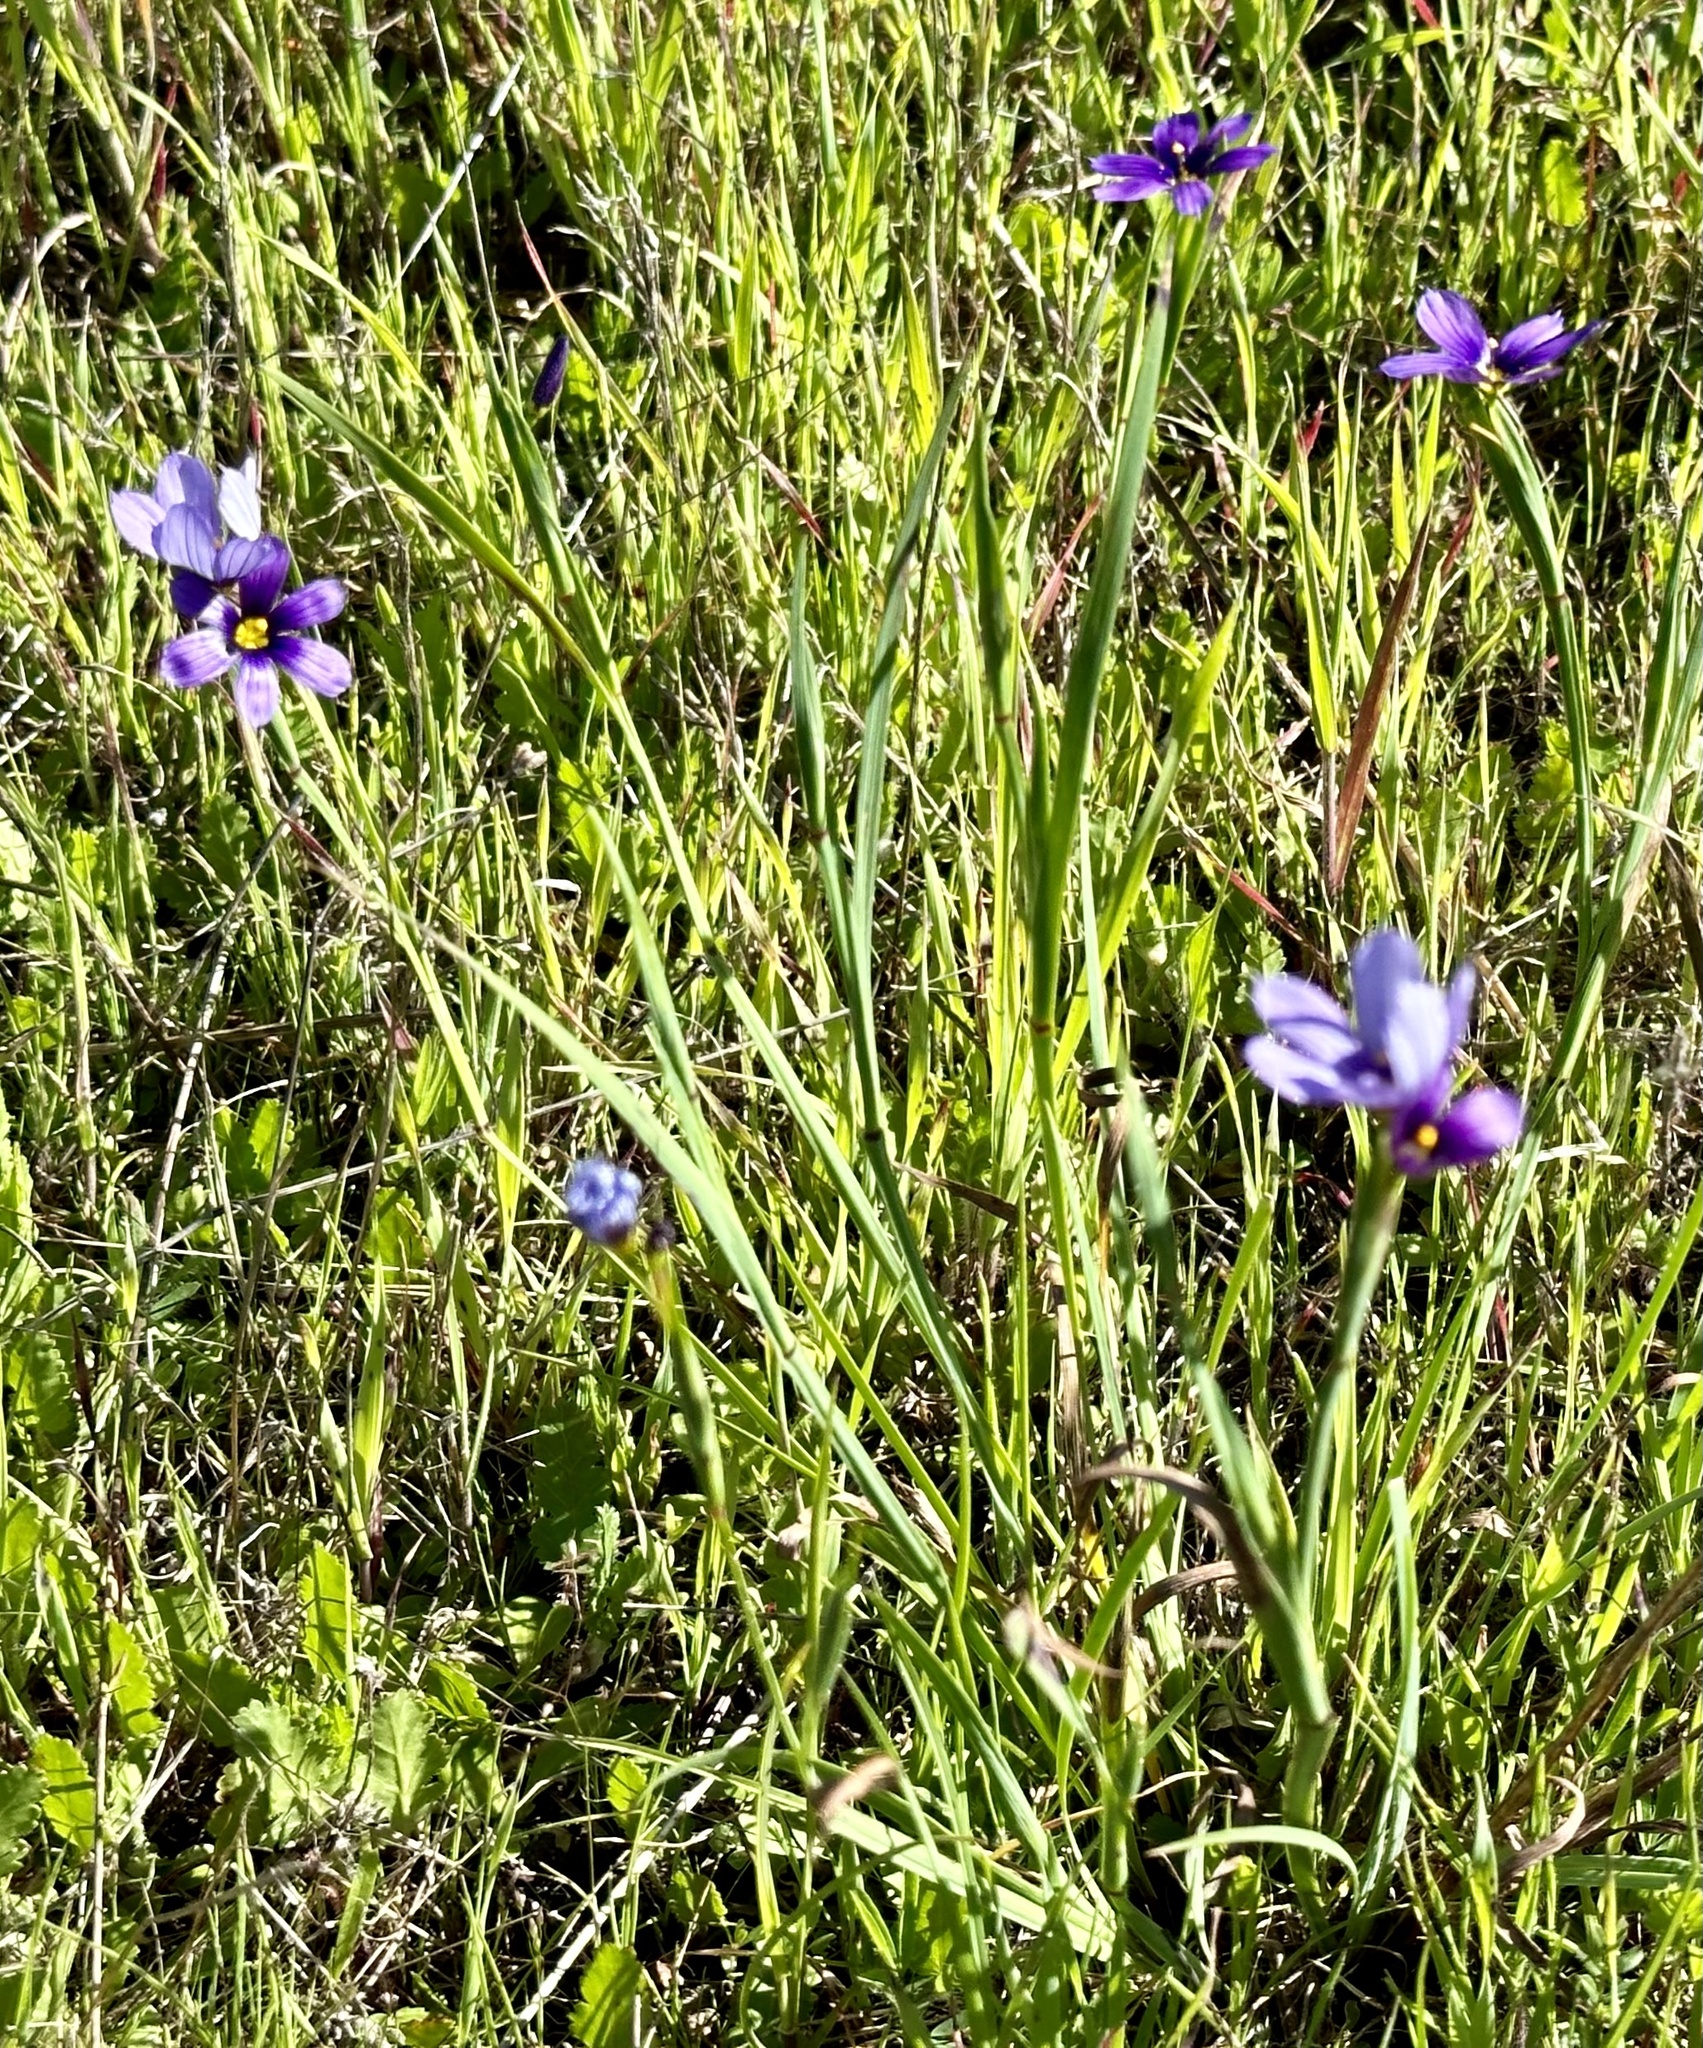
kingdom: Plantae
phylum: Tracheophyta
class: Liliopsida
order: Asparagales
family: Iridaceae
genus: Sisyrinchium
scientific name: Sisyrinchium bellum
